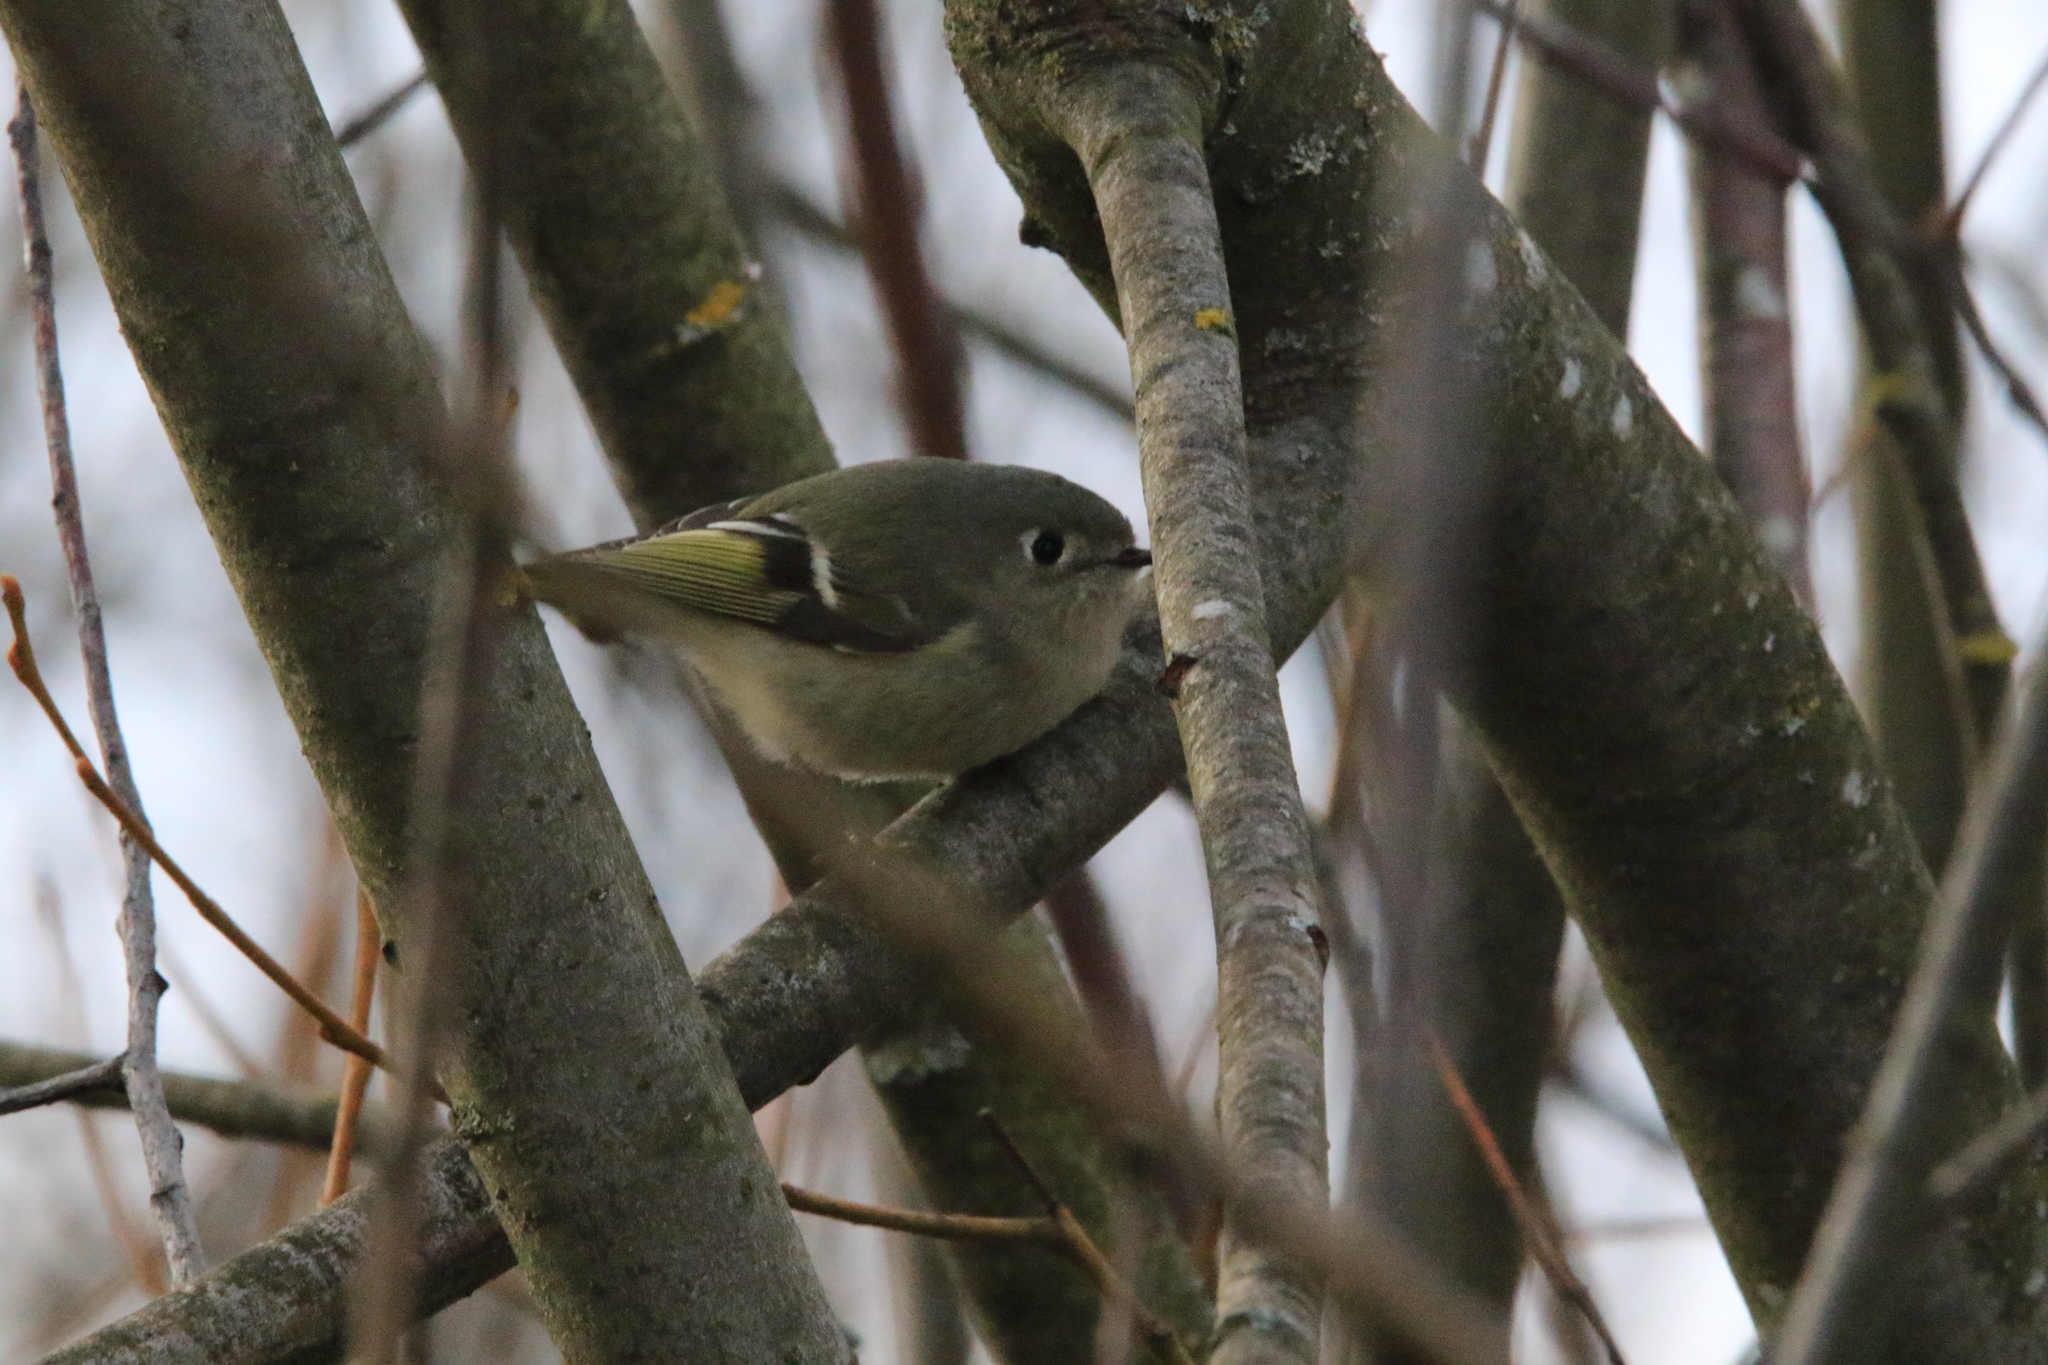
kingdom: Animalia
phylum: Chordata
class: Aves
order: Passeriformes
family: Regulidae
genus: Regulus
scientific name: Regulus calendula
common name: Ruby-crowned kinglet
